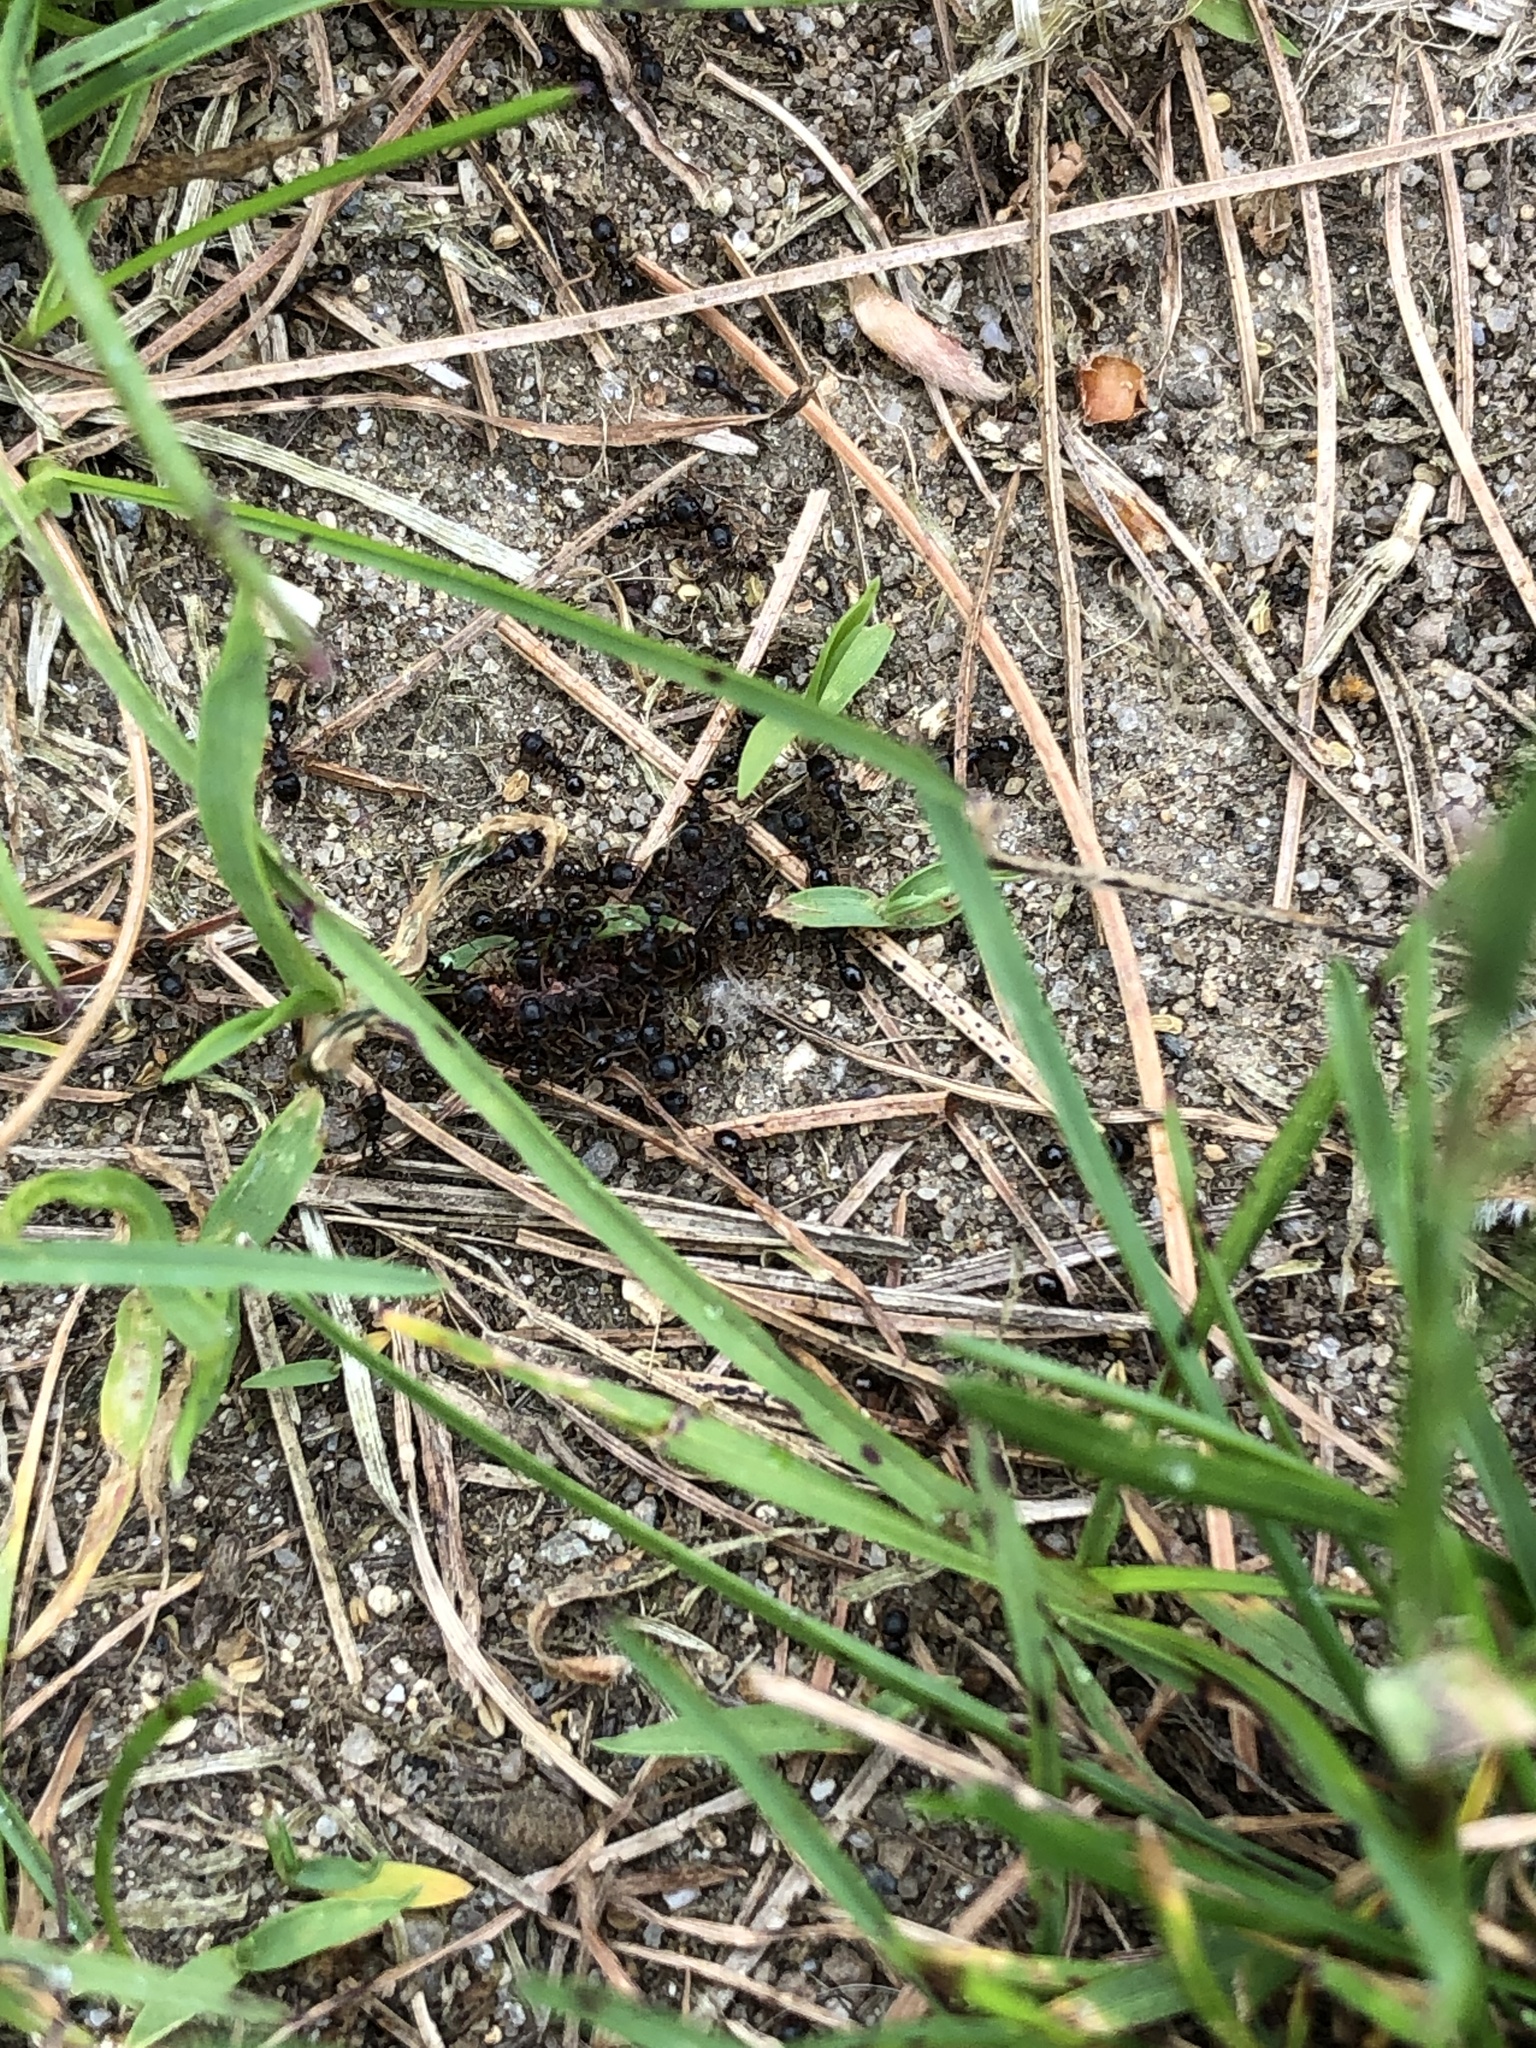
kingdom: Animalia
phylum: Arthropoda
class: Insecta
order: Hymenoptera
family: Formicidae
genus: Tetramorium
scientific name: Tetramorium immigrans
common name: Pavement ant
